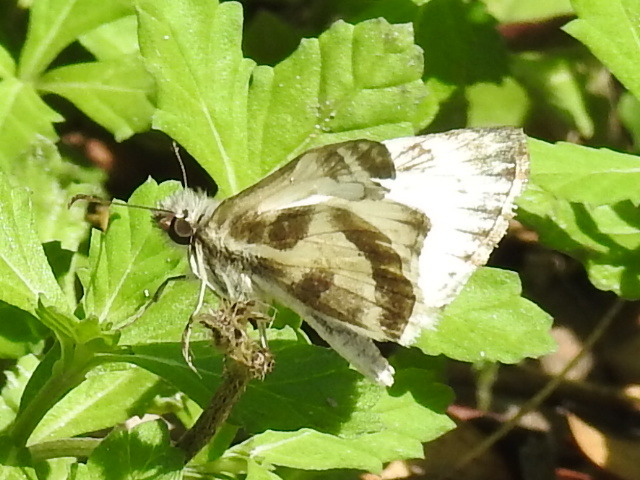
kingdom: Animalia
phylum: Arthropoda
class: Insecta
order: Lepidoptera
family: Hesperiidae
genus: Heliopetes
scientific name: Heliopetes macaira
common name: Turk's-cap white-skipper
